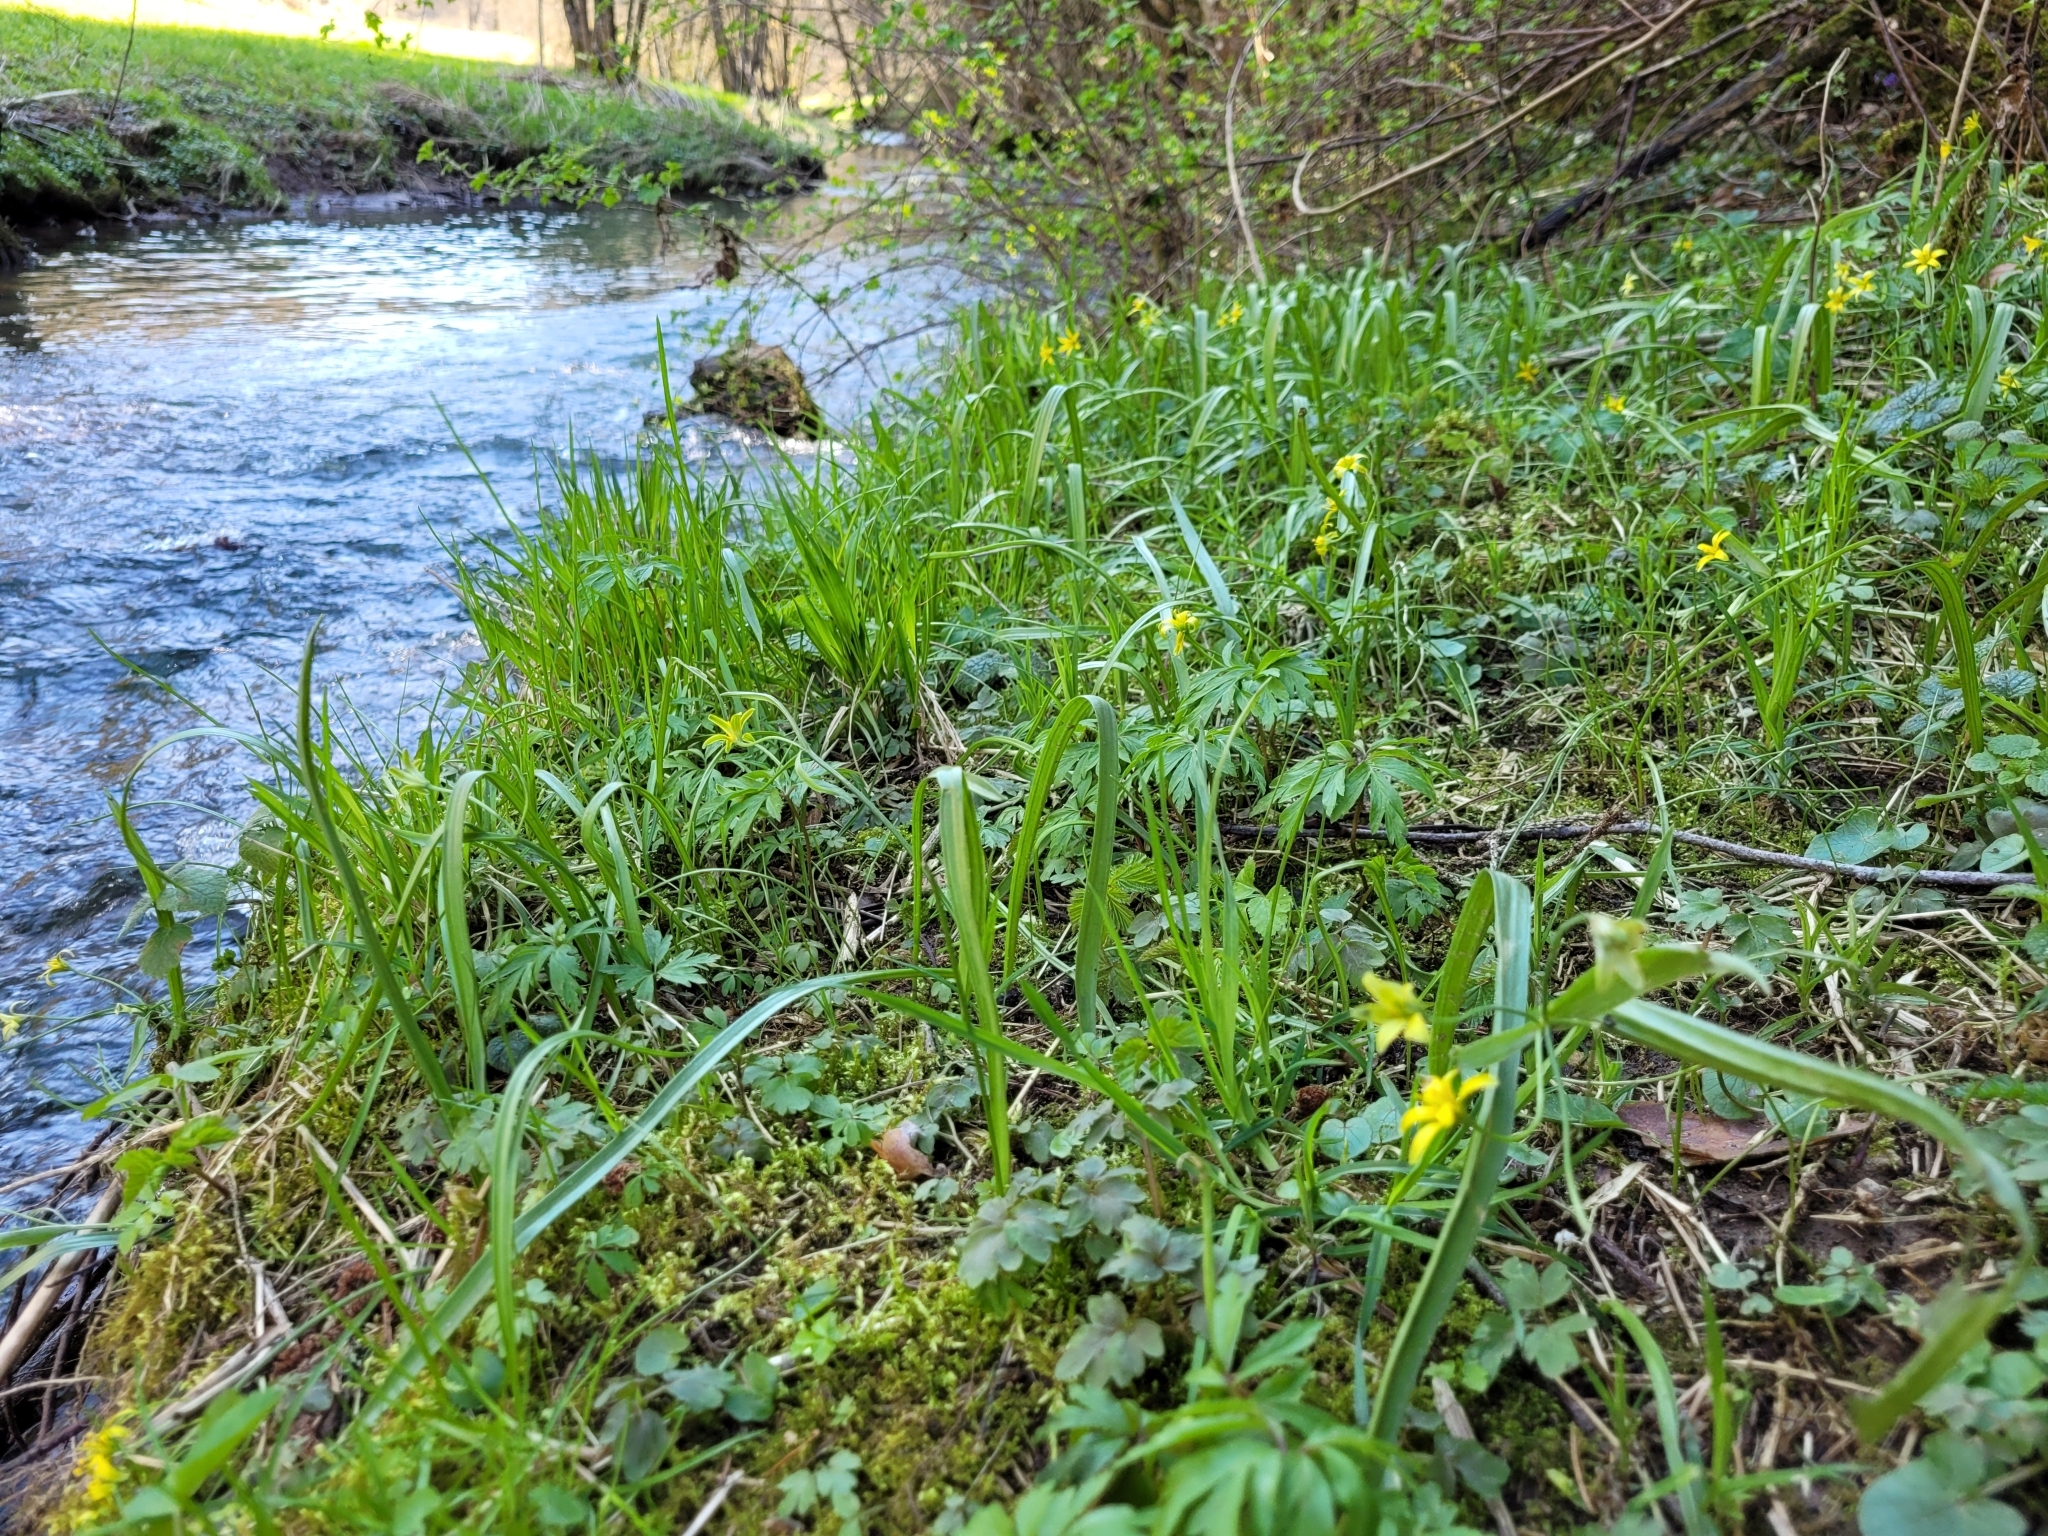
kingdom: Plantae
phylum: Tracheophyta
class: Liliopsida
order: Liliales
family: Liliaceae
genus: Gagea
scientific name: Gagea lutea
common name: Yellow star-of-bethlehem
